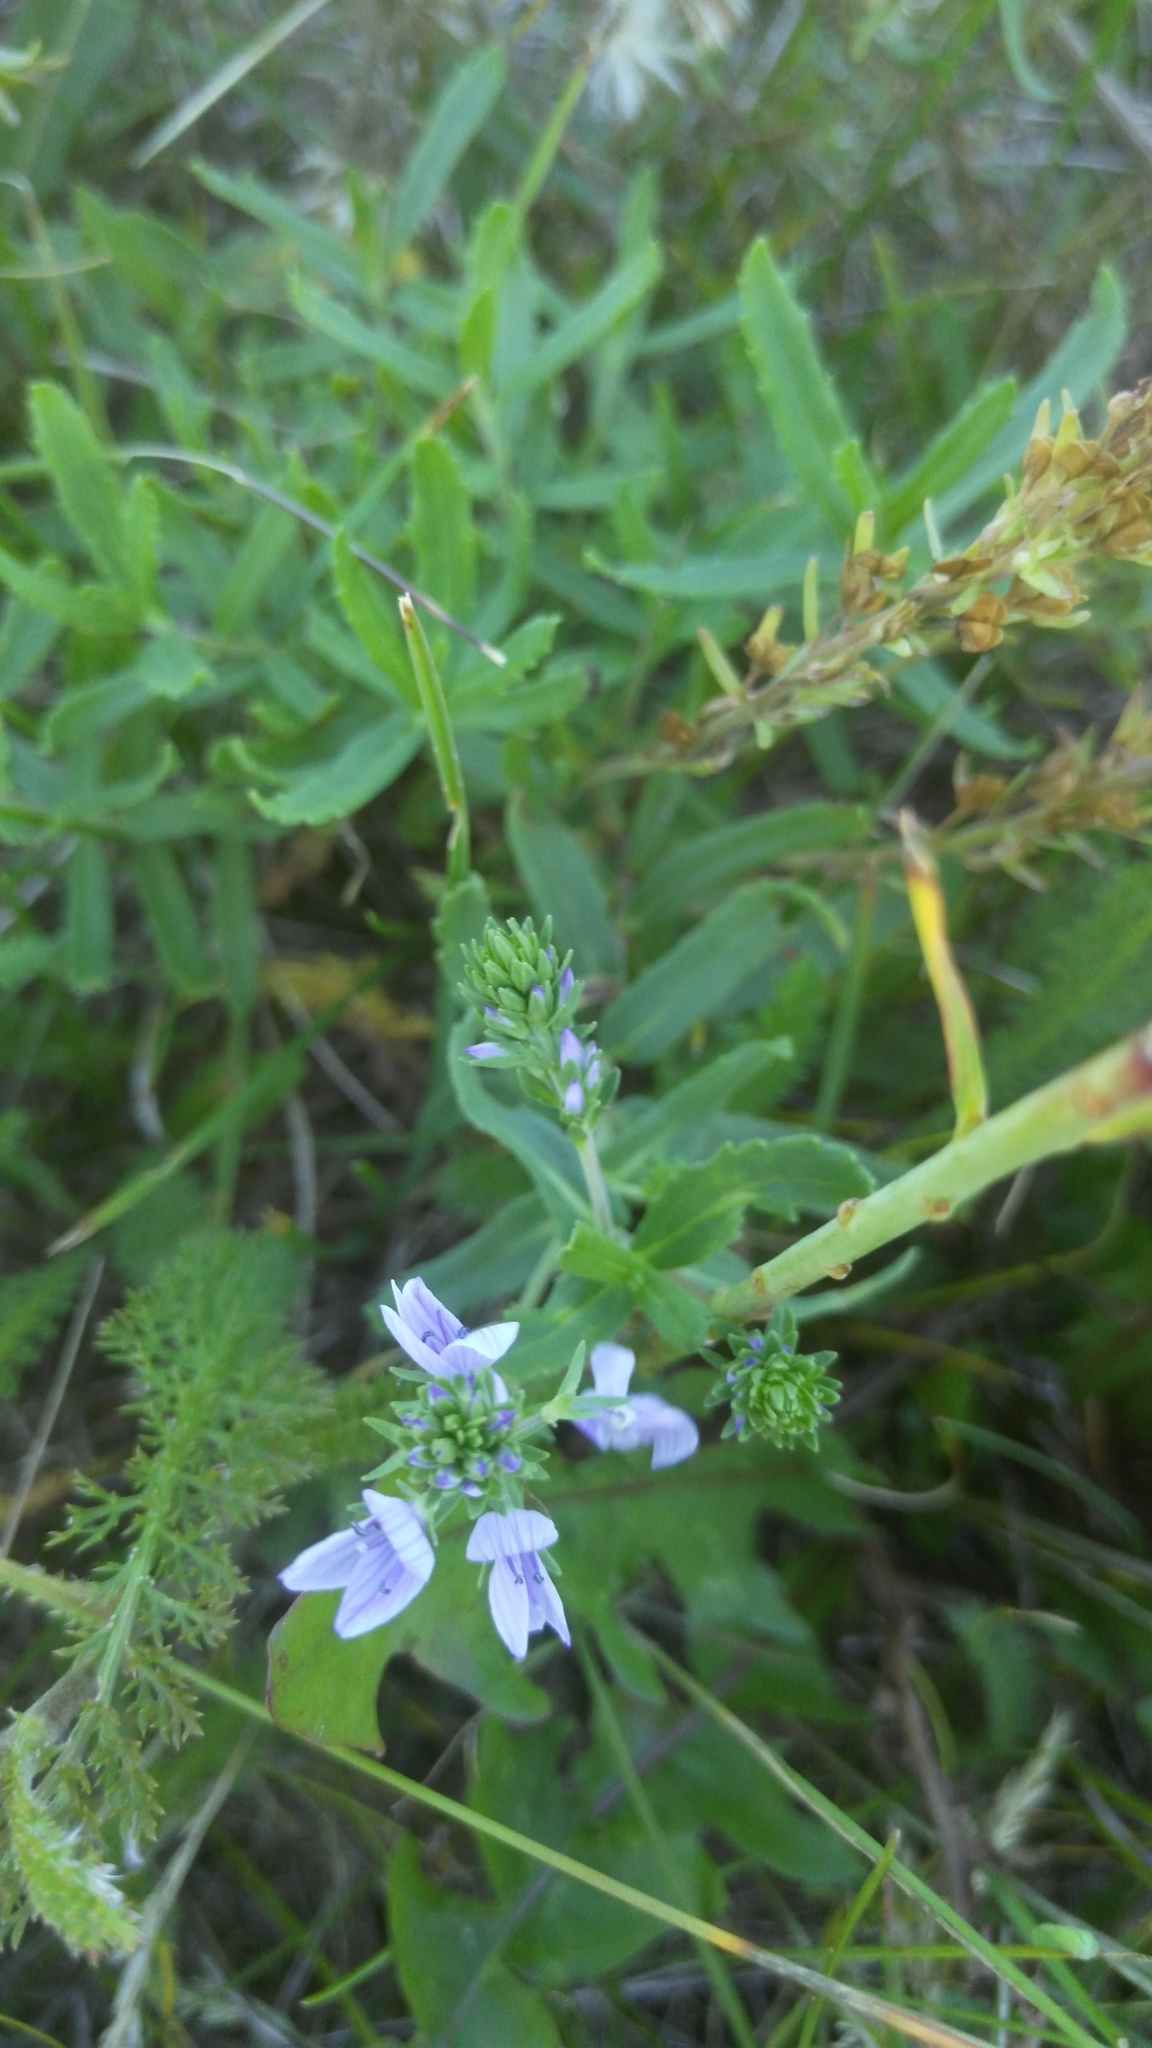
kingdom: Plantae
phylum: Tracheophyta
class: Magnoliopsida
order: Lamiales
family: Plantaginaceae
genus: Veronica
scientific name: Veronica prostrata
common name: Prostrate speedwell
